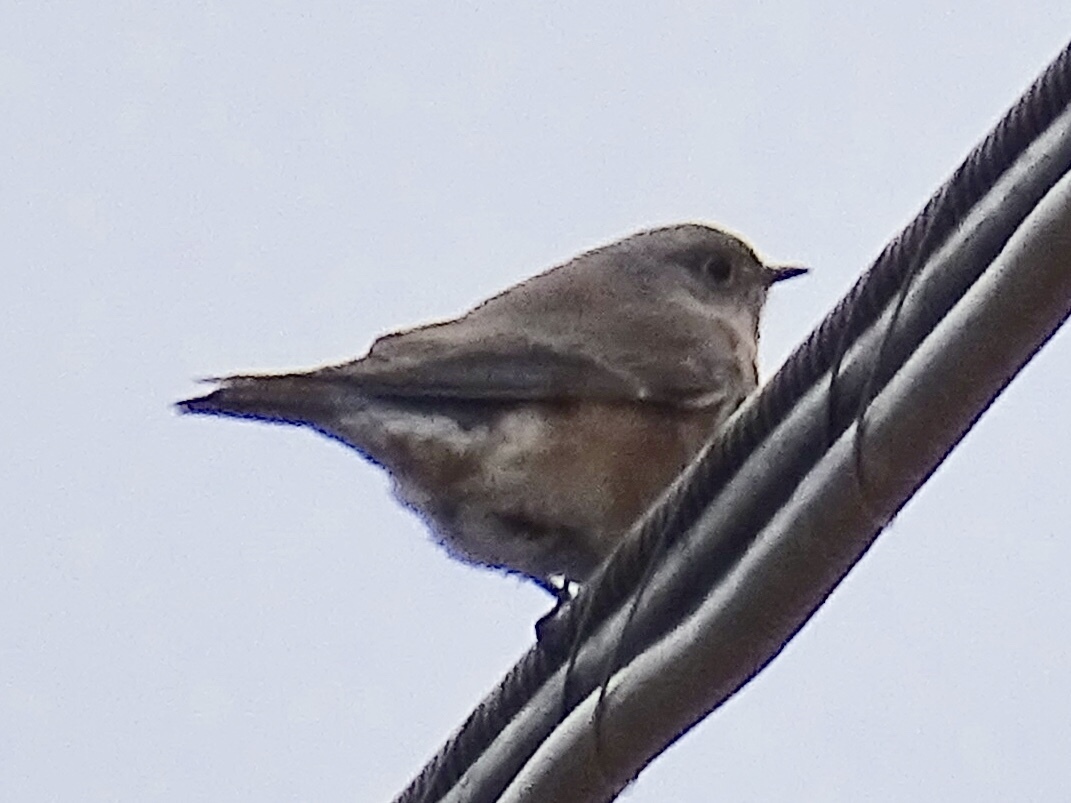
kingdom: Animalia
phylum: Chordata
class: Aves
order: Passeriformes
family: Turdidae
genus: Sialia
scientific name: Sialia mexicana
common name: Western bluebird
